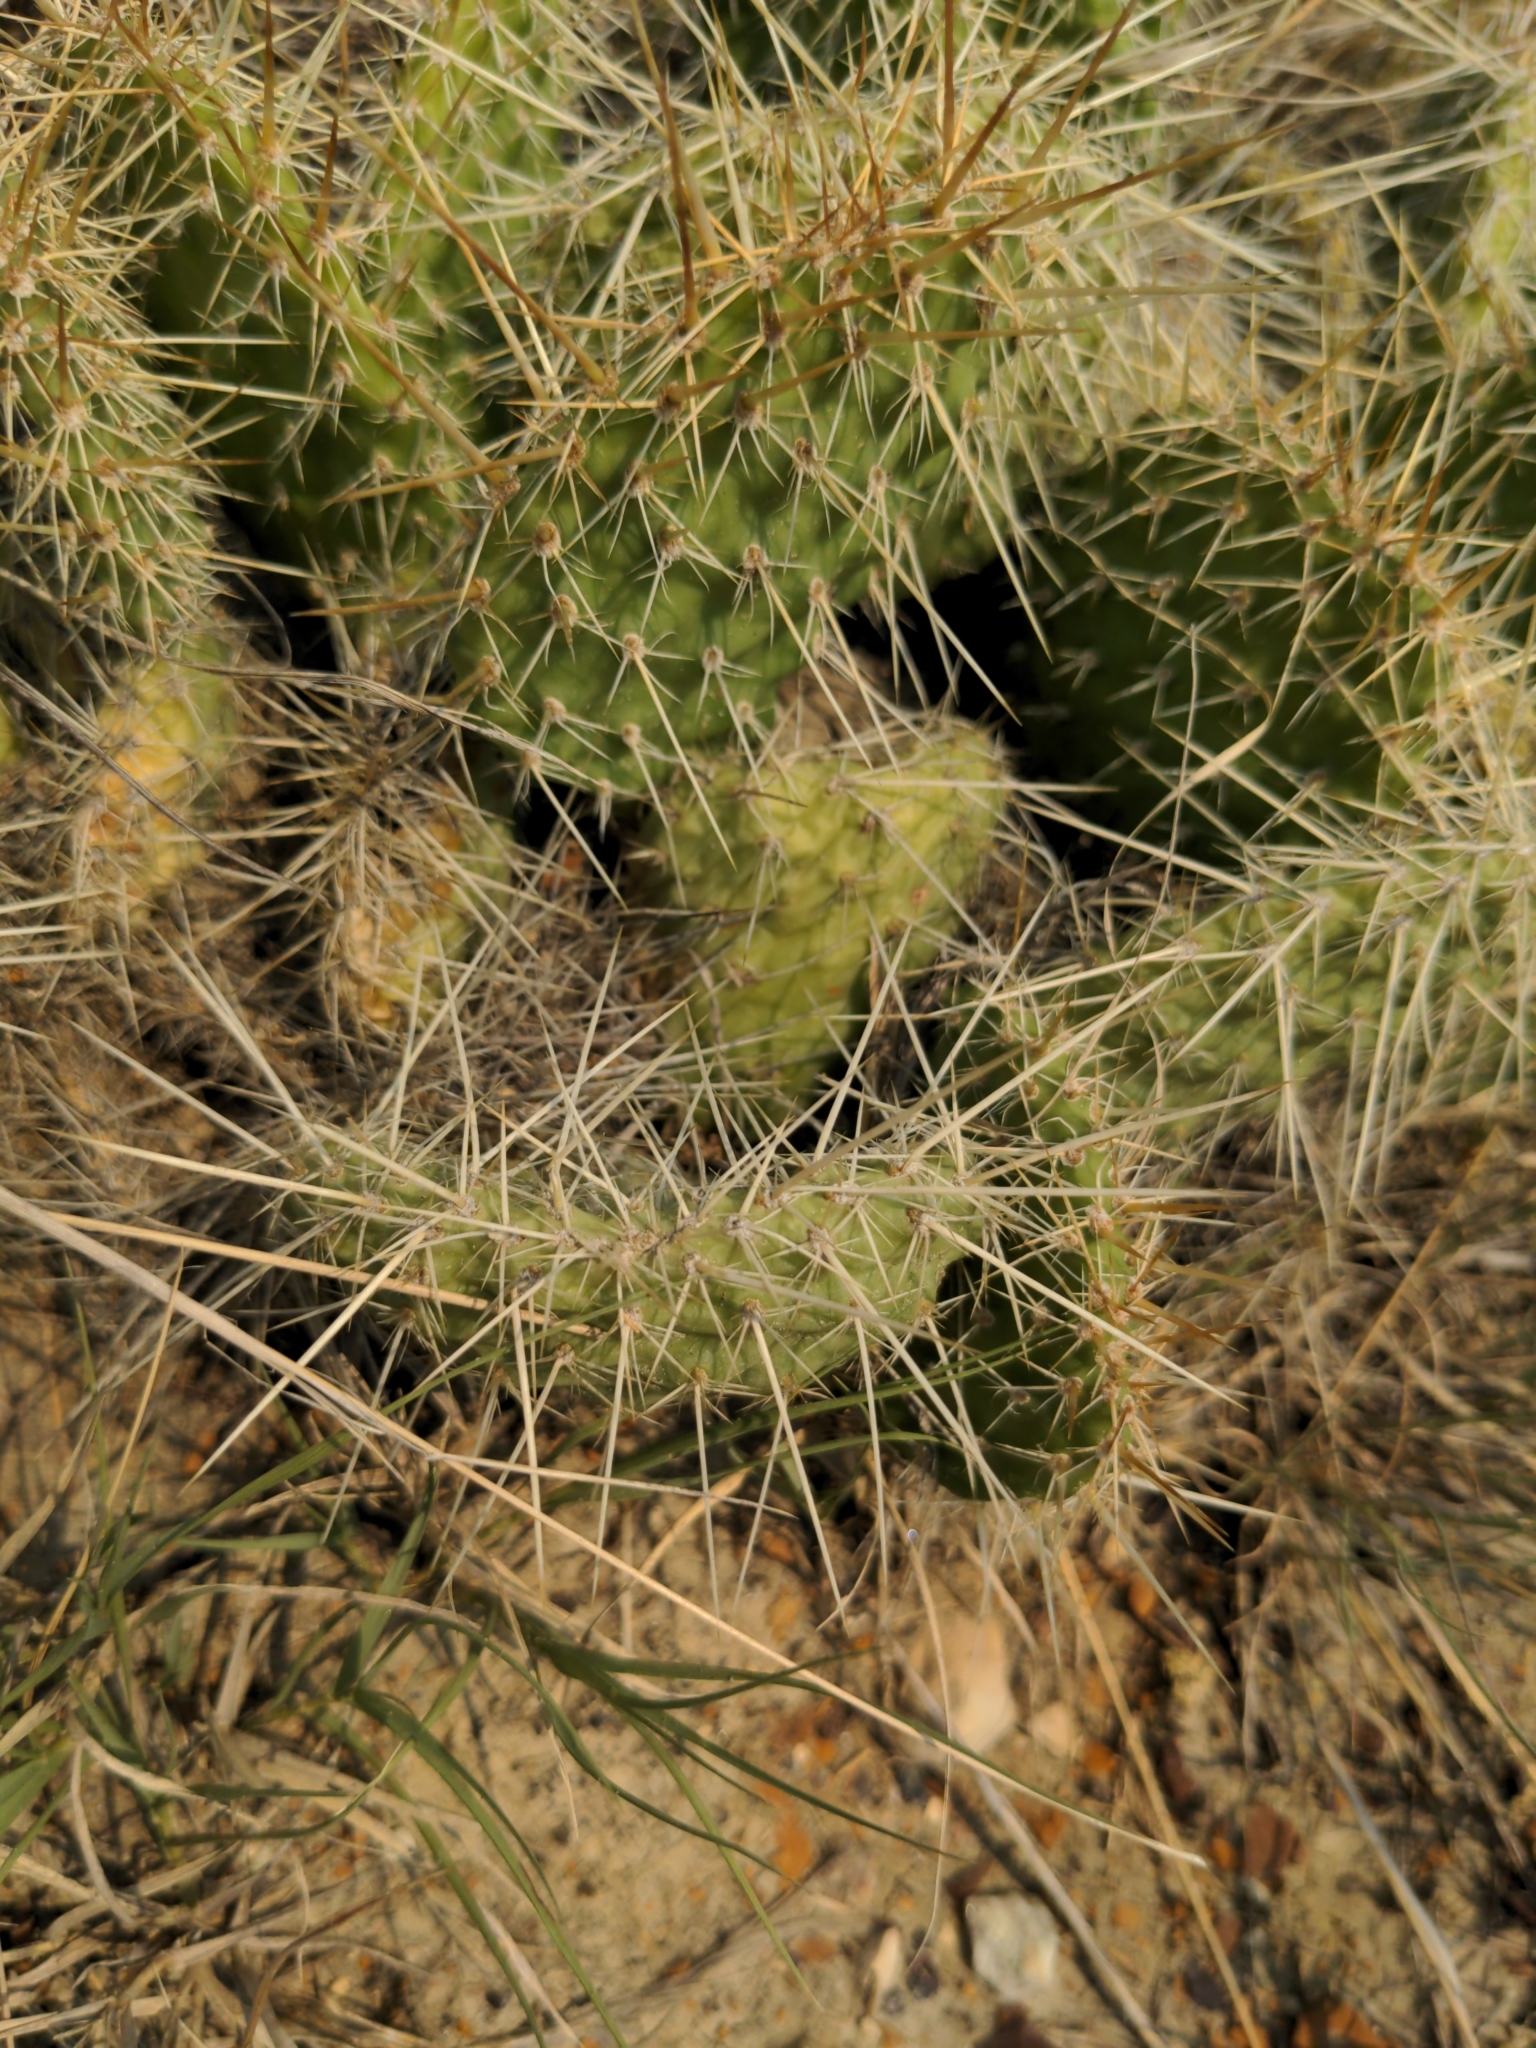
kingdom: Plantae
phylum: Tracheophyta
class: Magnoliopsida
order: Caryophyllales
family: Cactaceae
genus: Opuntia
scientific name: Opuntia polyacantha
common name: Plains prickly-pear
